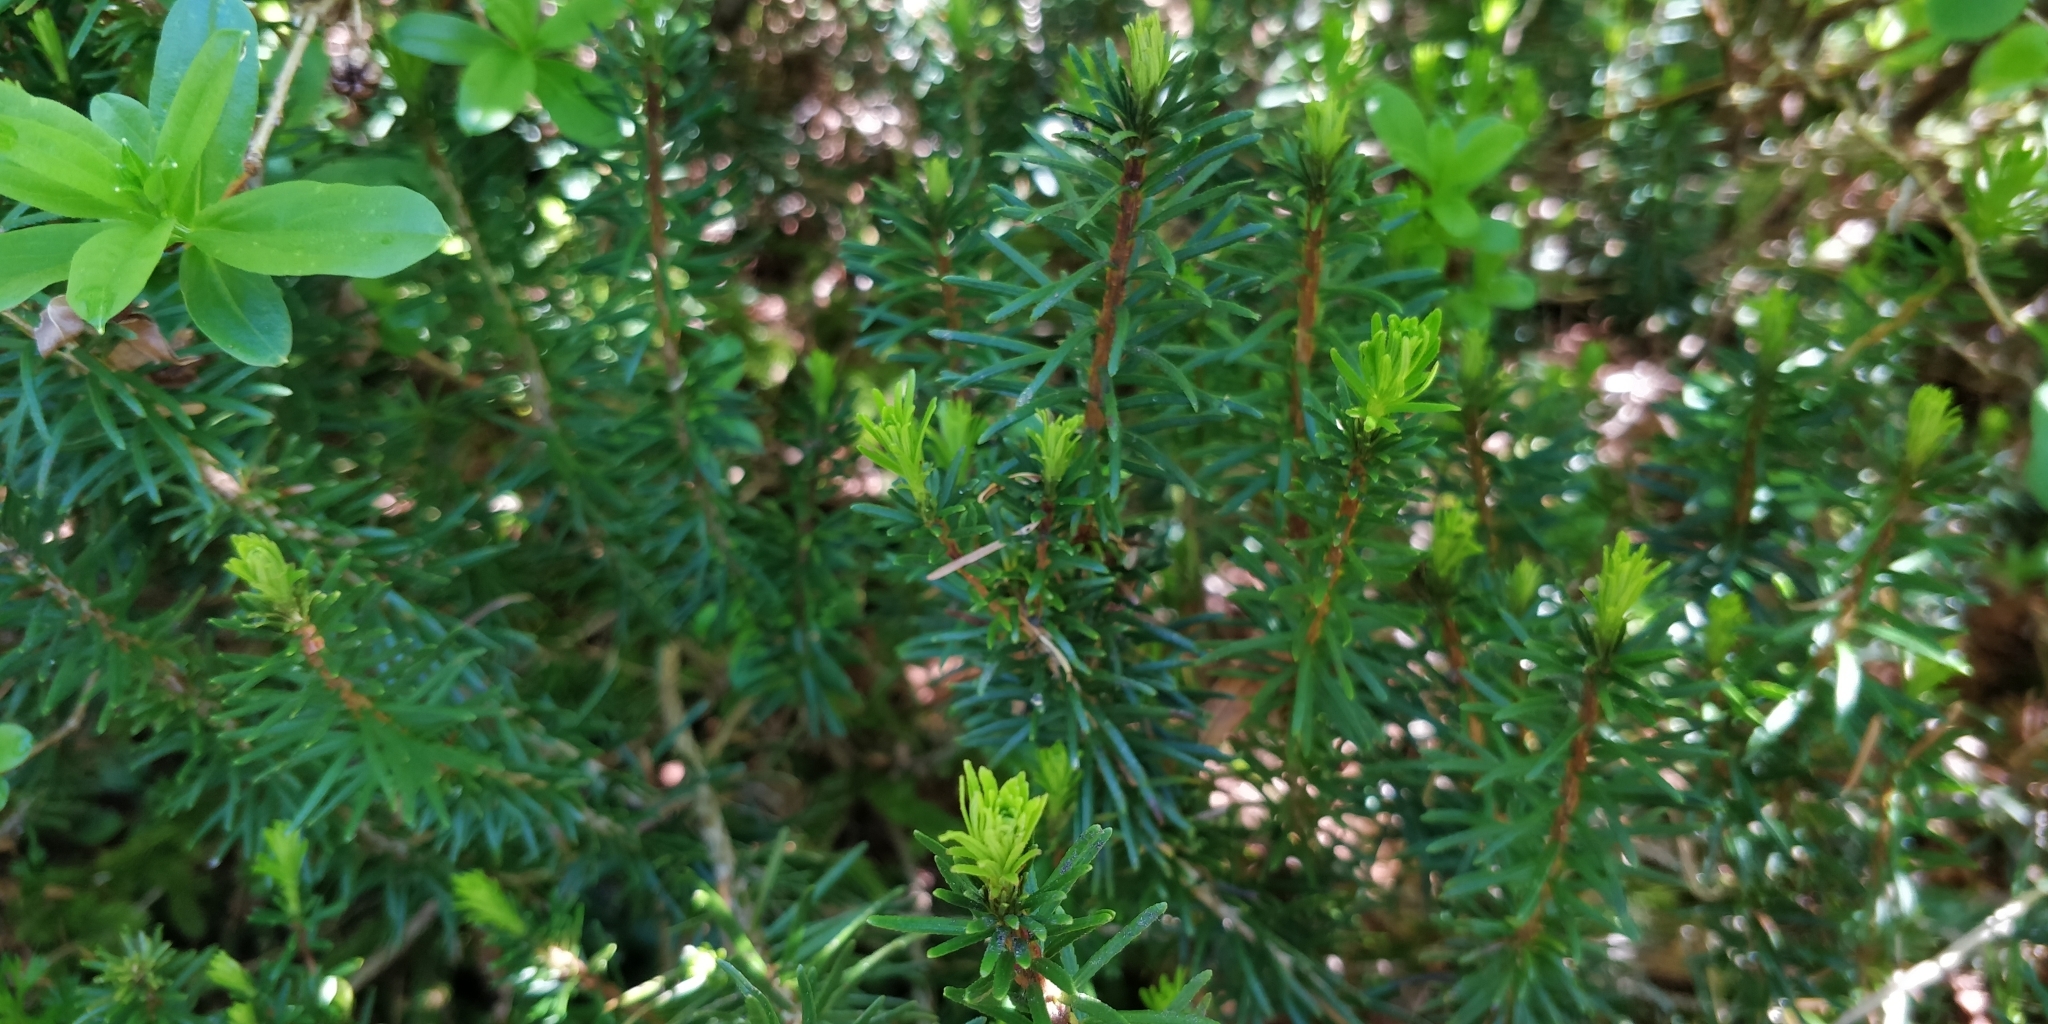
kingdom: Plantae
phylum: Tracheophyta
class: Magnoliopsida
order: Ericales
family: Ericaceae
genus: Phyllodoce
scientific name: Phyllodoce empetriformis
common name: Pink mountain heather
